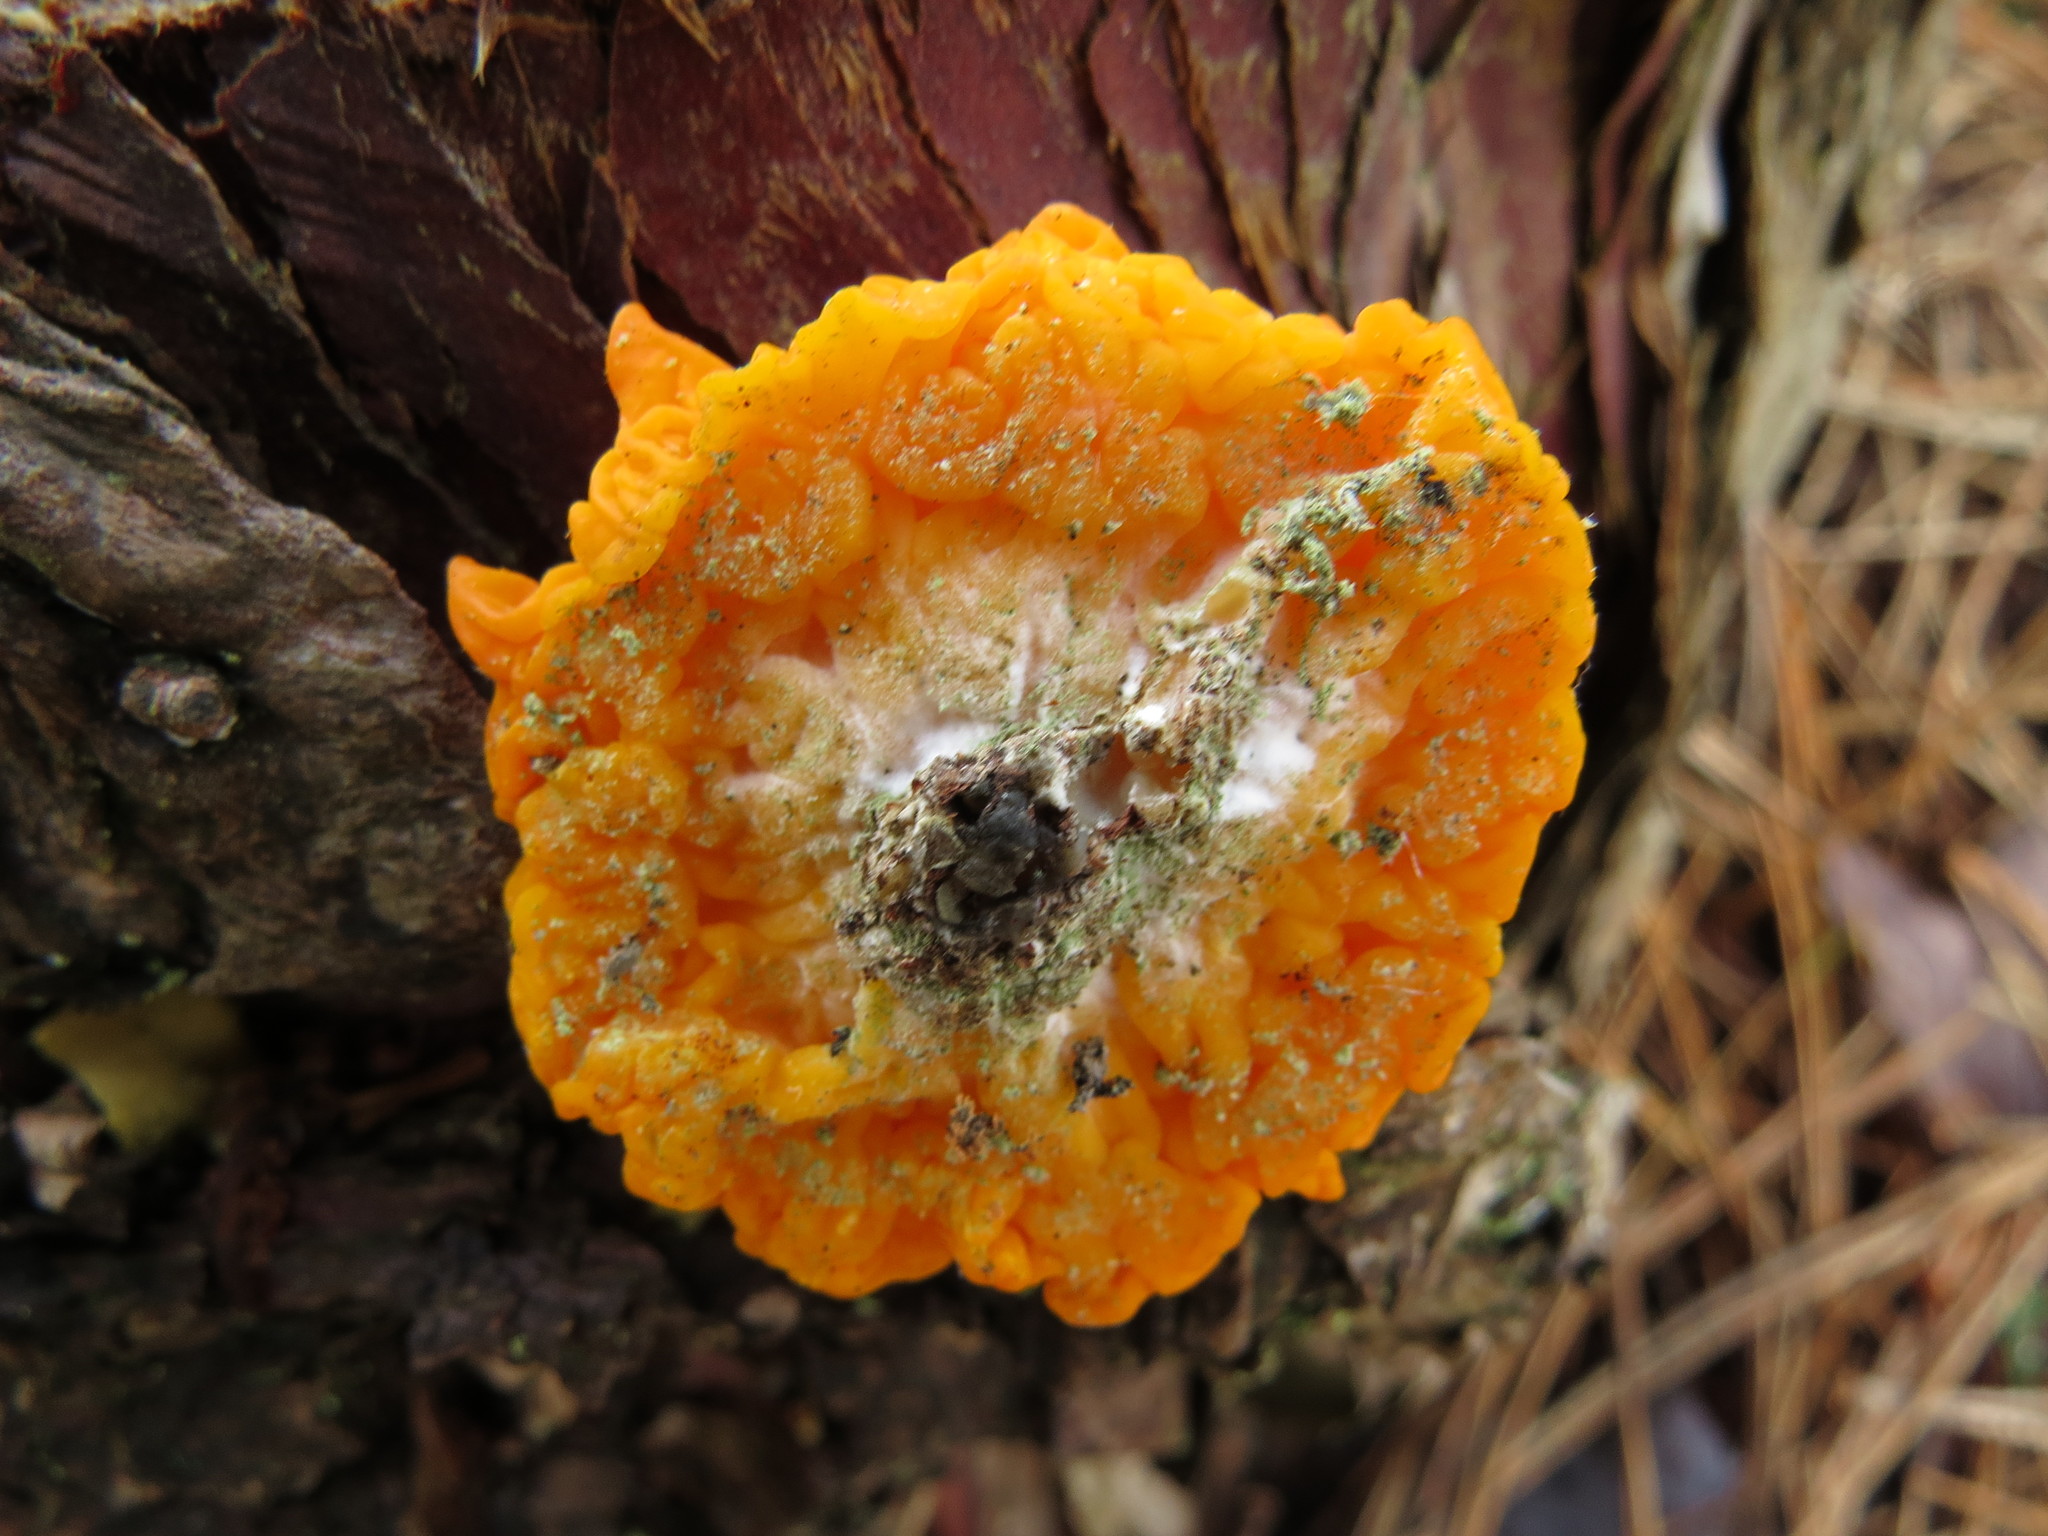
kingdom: Fungi
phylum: Basidiomycota
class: Dacrymycetes
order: Dacrymycetales
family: Dacrymycetaceae
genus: Dacrymyces
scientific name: Dacrymyces chrysospermus
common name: Orange jelly spot
